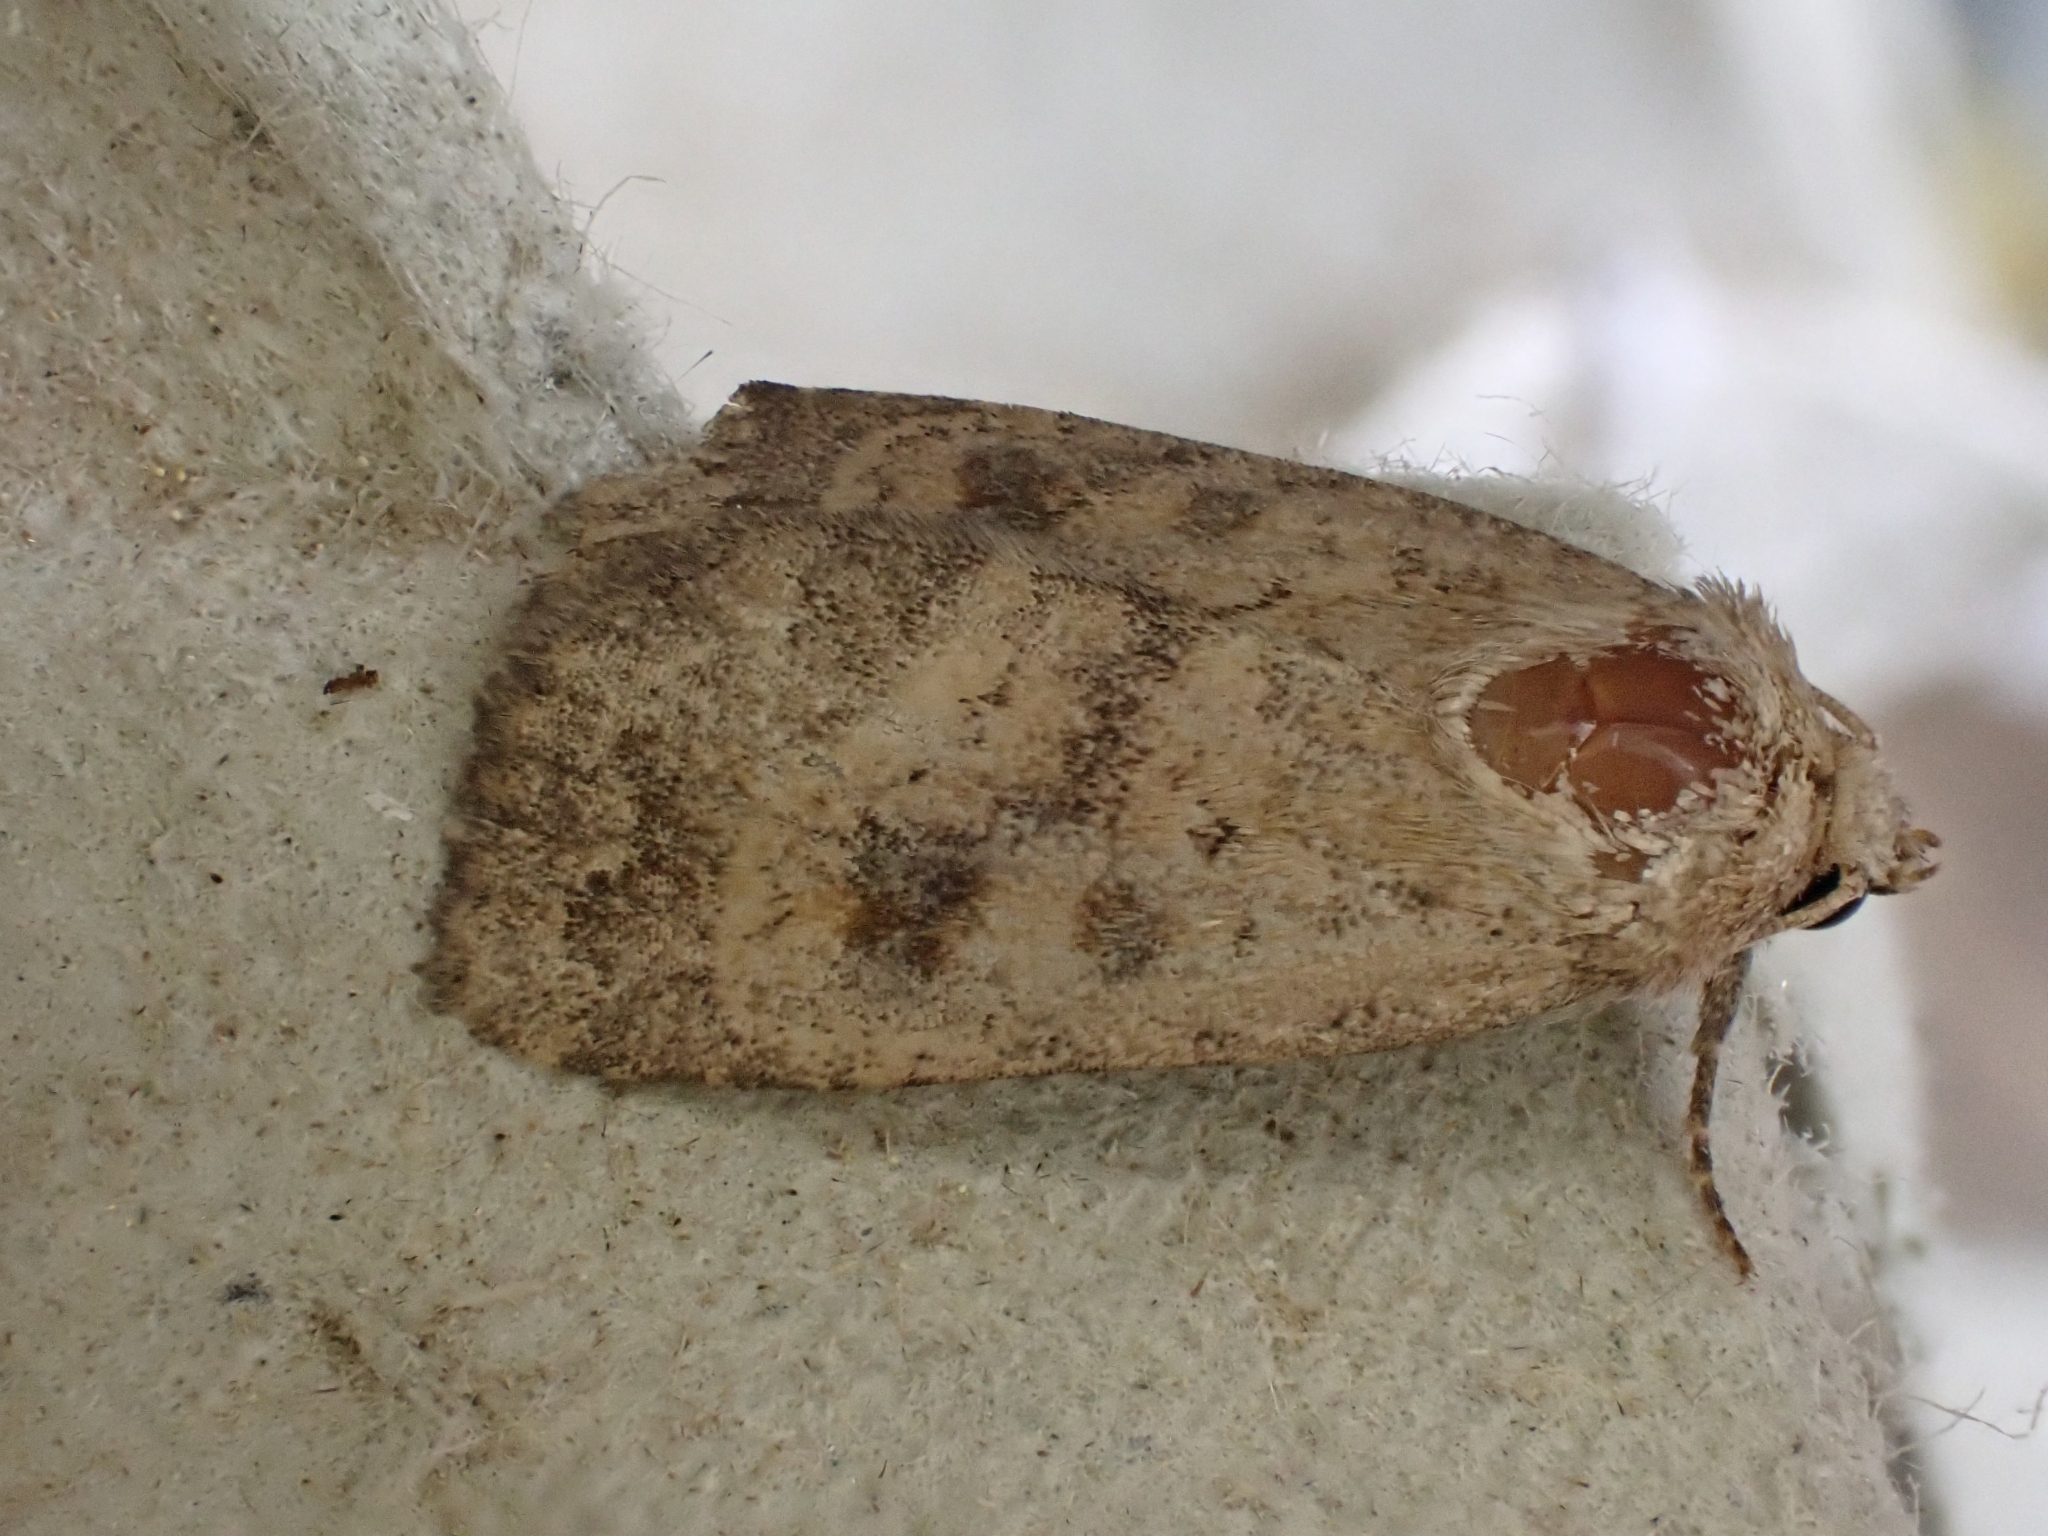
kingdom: Animalia
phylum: Arthropoda
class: Insecta
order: Lepidoptera
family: Noctuidae
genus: Caradrina
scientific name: Caradrina morpheus
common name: Mottled rustic
